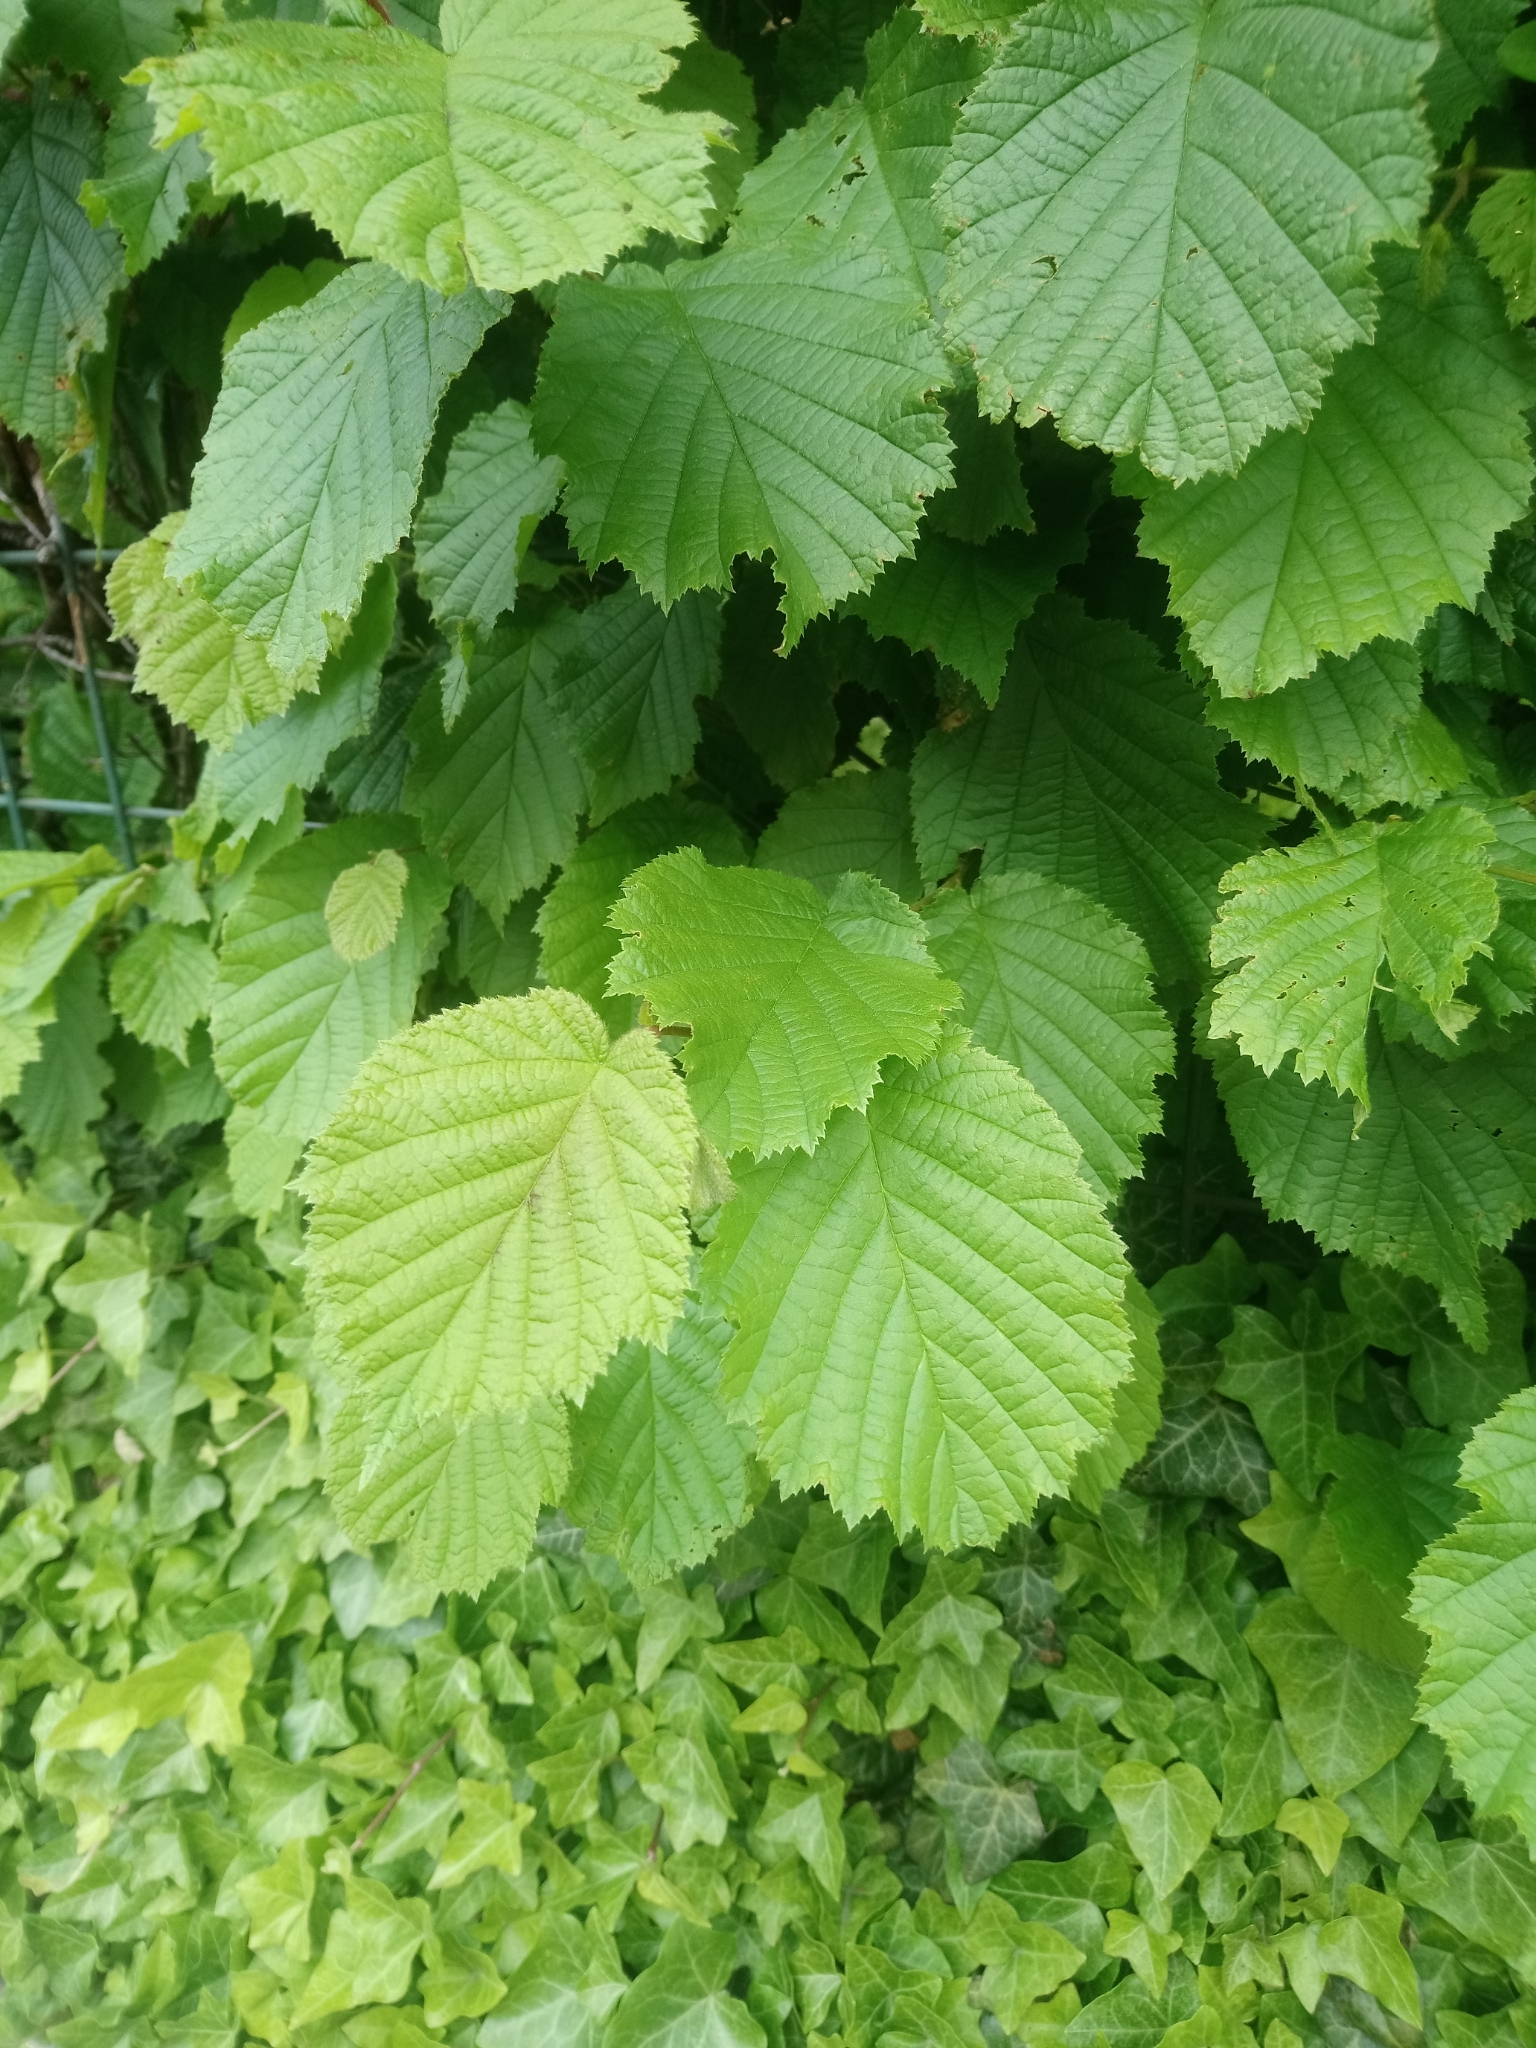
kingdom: Plantae
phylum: Tracheophyta
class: Magnoliopsida
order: Fagales
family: Betulaceae
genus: Corylus
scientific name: Corylus avellana
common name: European hazel
